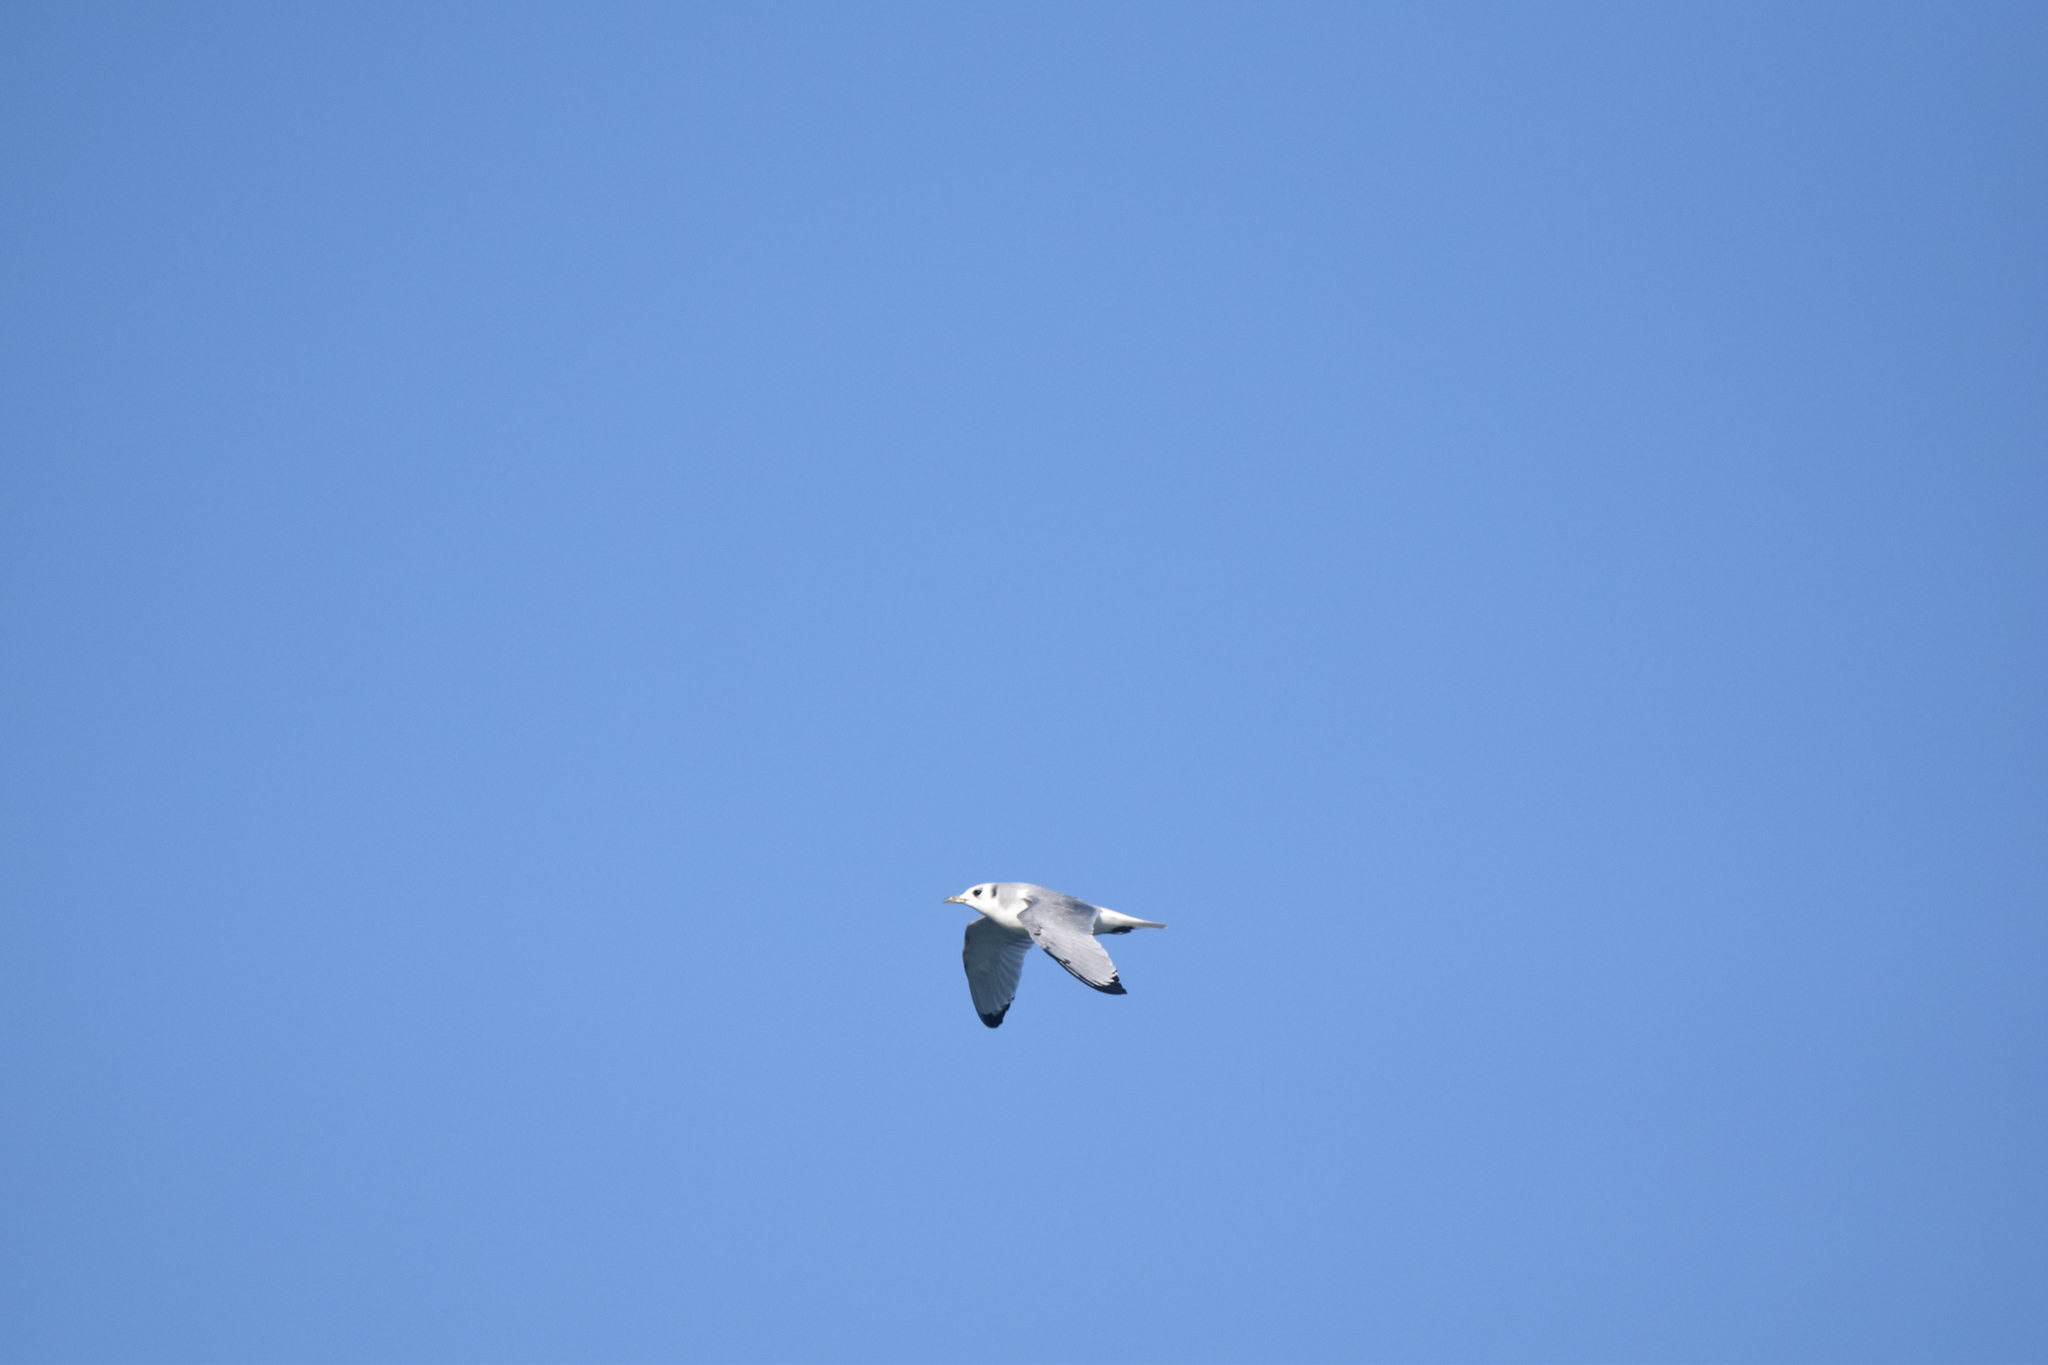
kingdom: Animalia
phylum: Chordata
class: Aves
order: Charadriiformes
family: Laridae
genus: Rissa
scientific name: Rissa tridactyla
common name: Black-legged kittiwake
